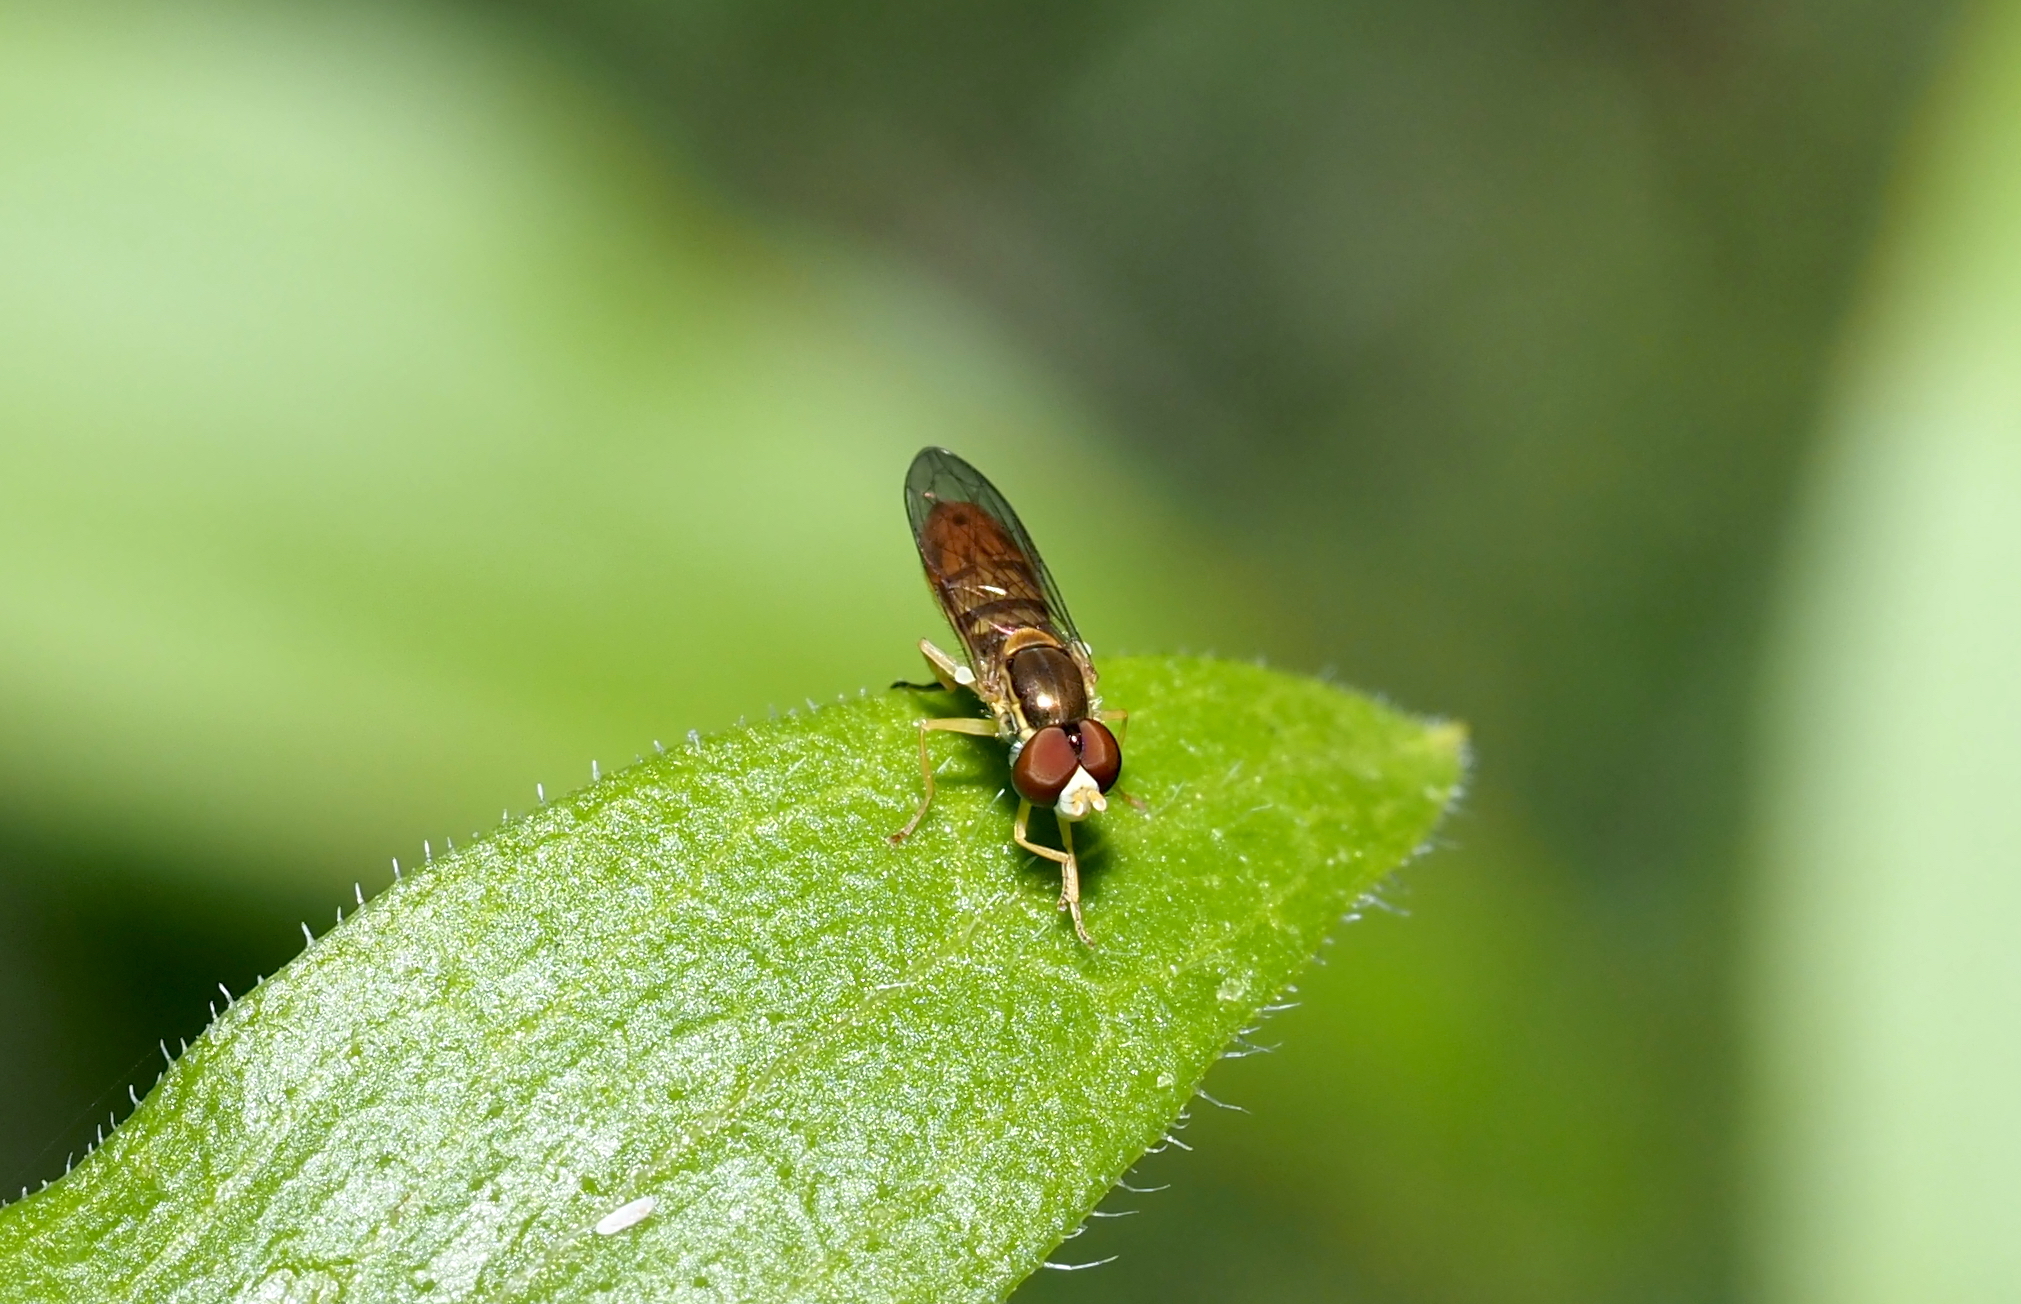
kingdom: Animalia
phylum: Arthropoda
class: Insecta
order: Diptera
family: Syrphidae
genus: Toxomerus
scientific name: Toxomerus marginatus
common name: Syrphid fly
